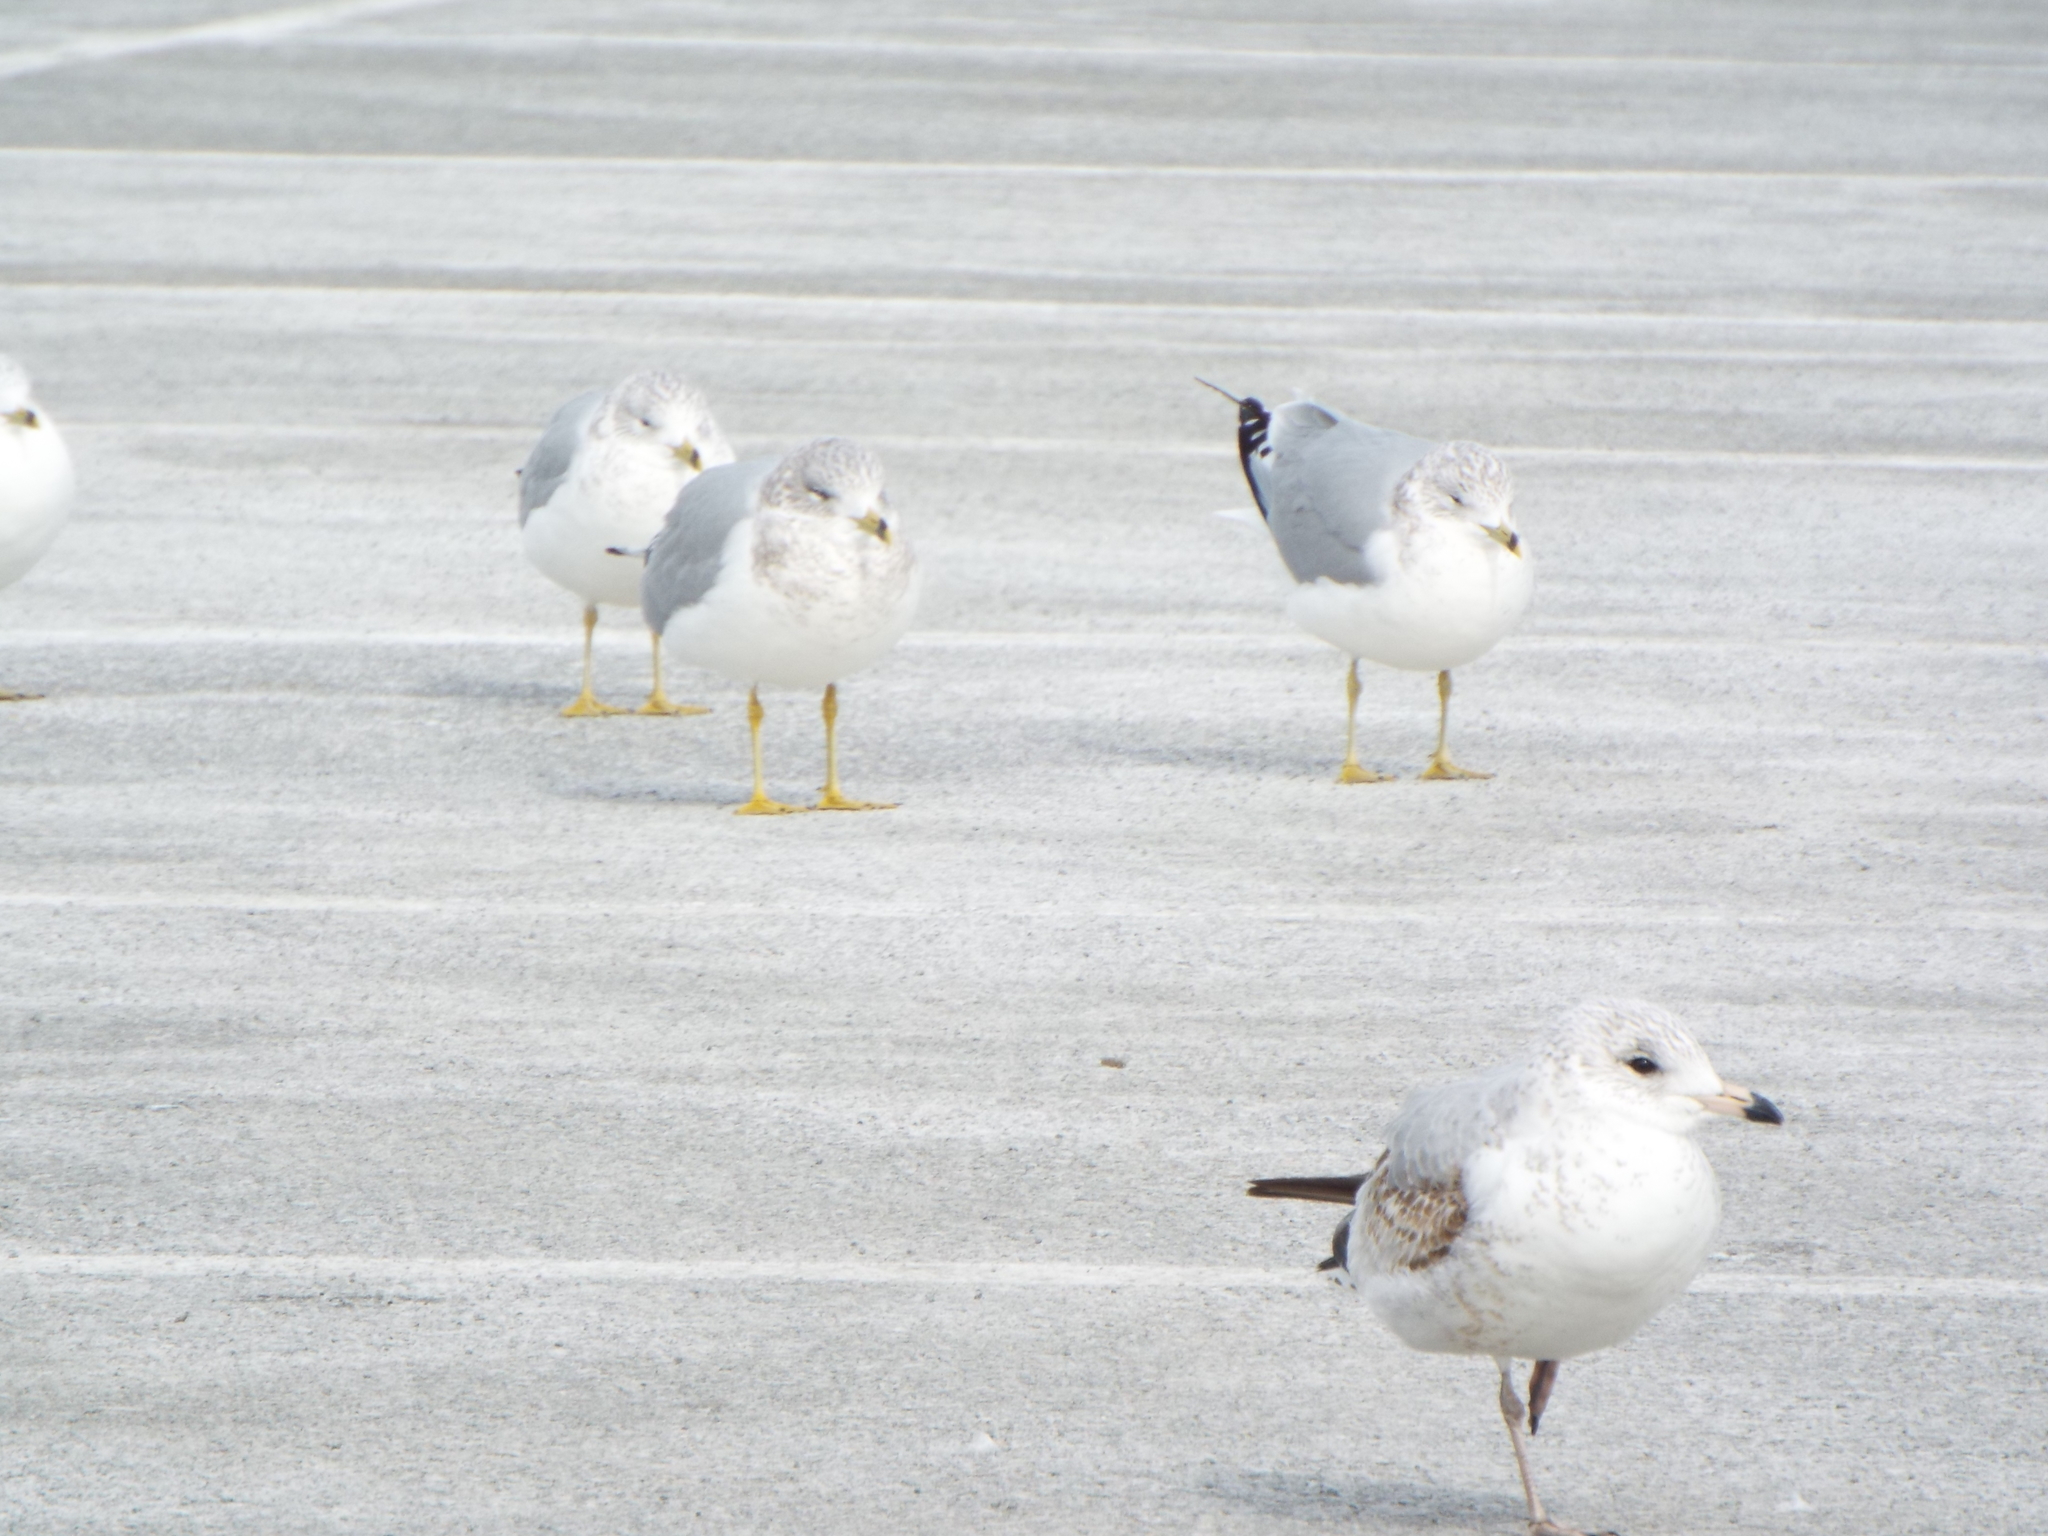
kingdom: Animalia
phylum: Chordata
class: Aves
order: Charadriiformes
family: Laridae
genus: Larus
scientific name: Larus delawarensis
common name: Ring-billed gull
